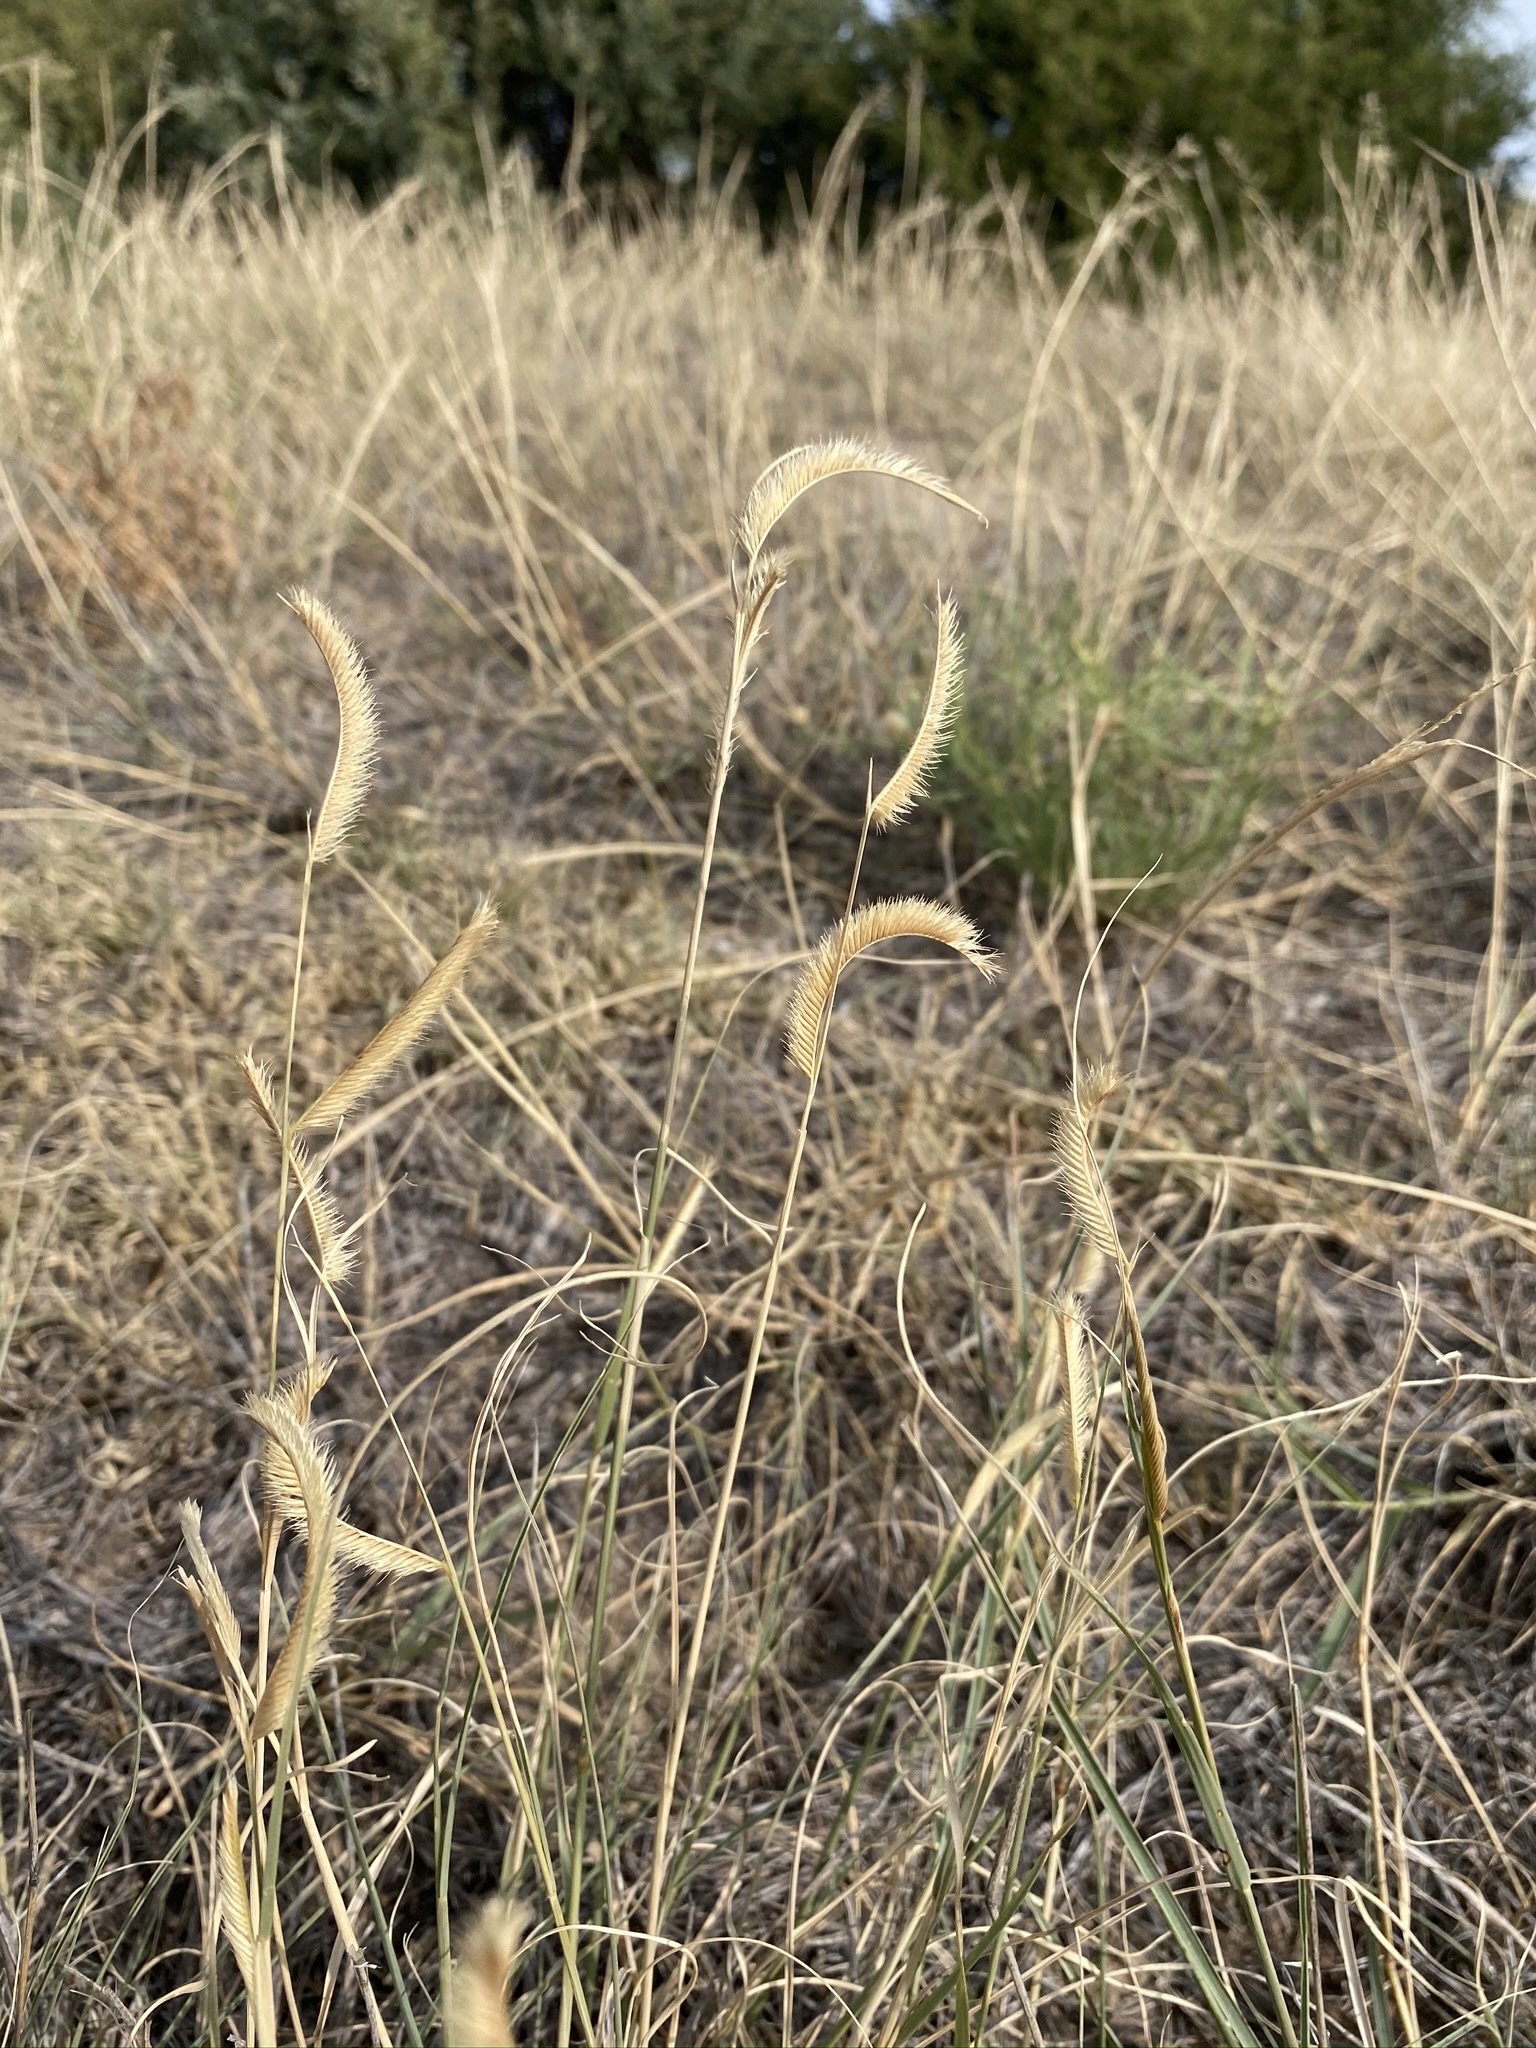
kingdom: Plantae
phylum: Tracheophyta
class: Liliopsida
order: Poales
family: Poaceae
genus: Bouteloua
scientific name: Bouteloua gracilis
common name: Blue grama
